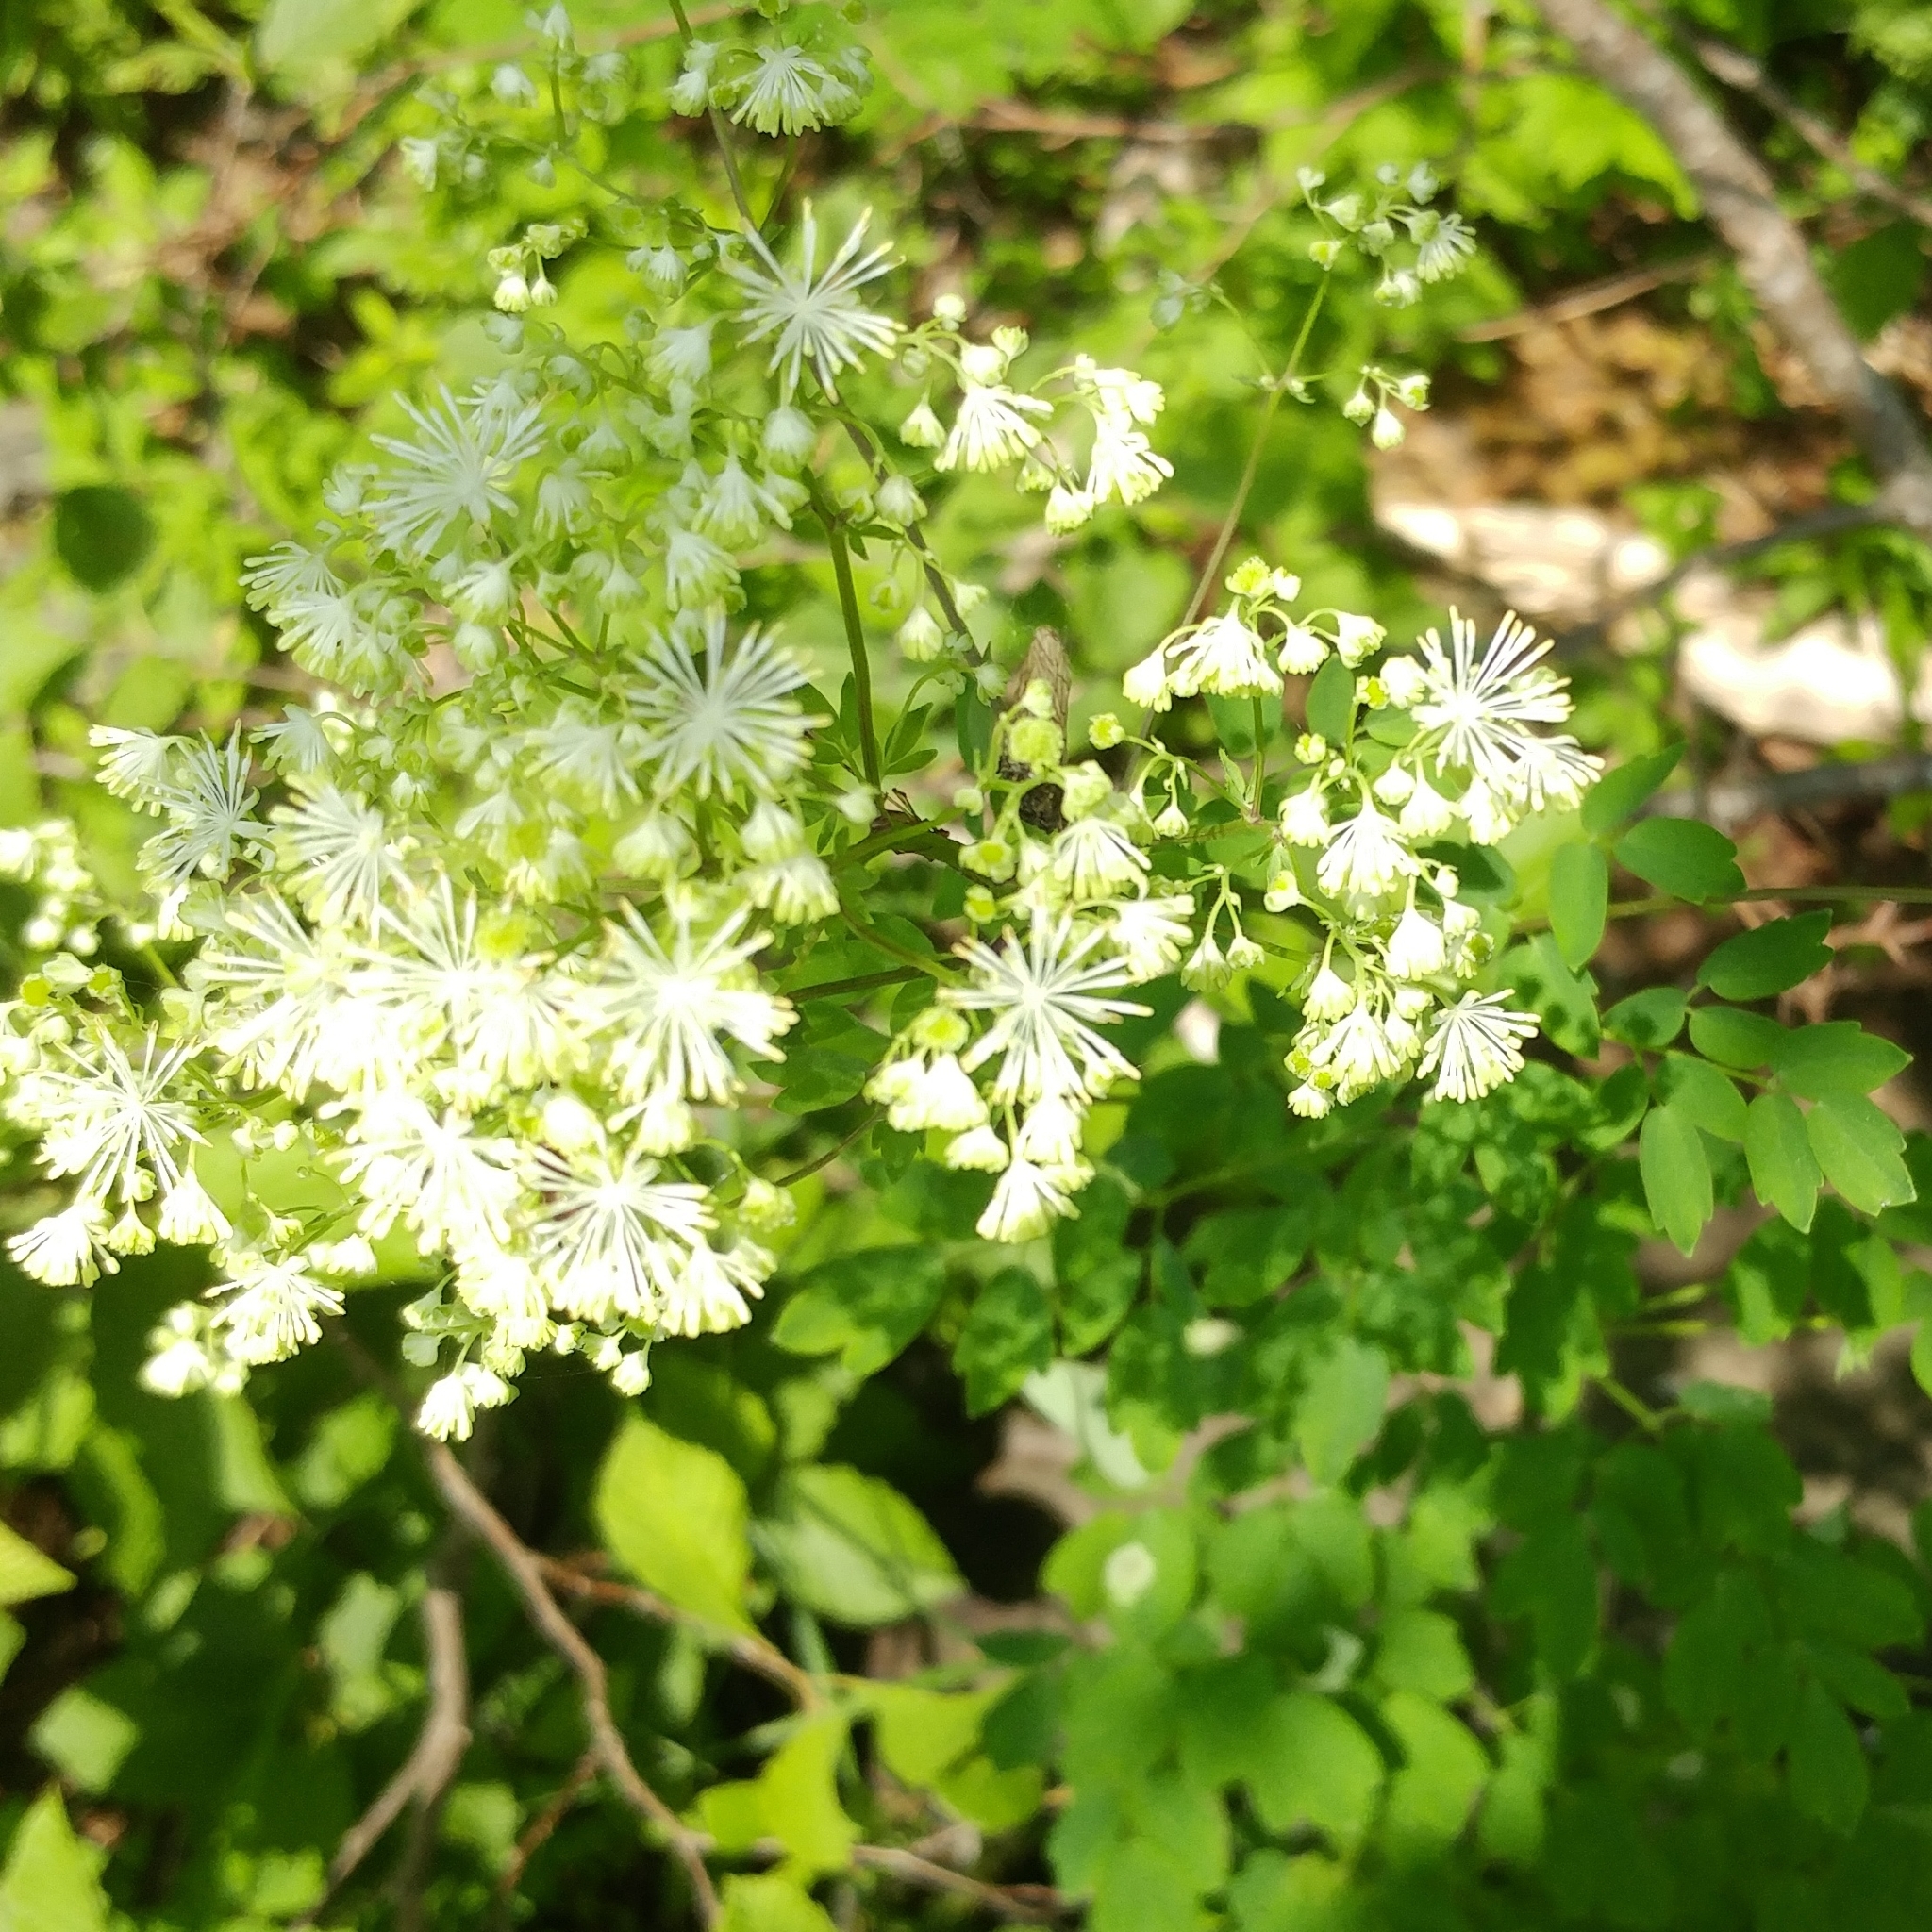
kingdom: Plantae
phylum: Tracheophyta
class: Magnoliopsida
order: Ranunculales
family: Ranunculaceae
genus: Thalictrum
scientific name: Thalictrum pubescens
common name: King-of-the-meadow
